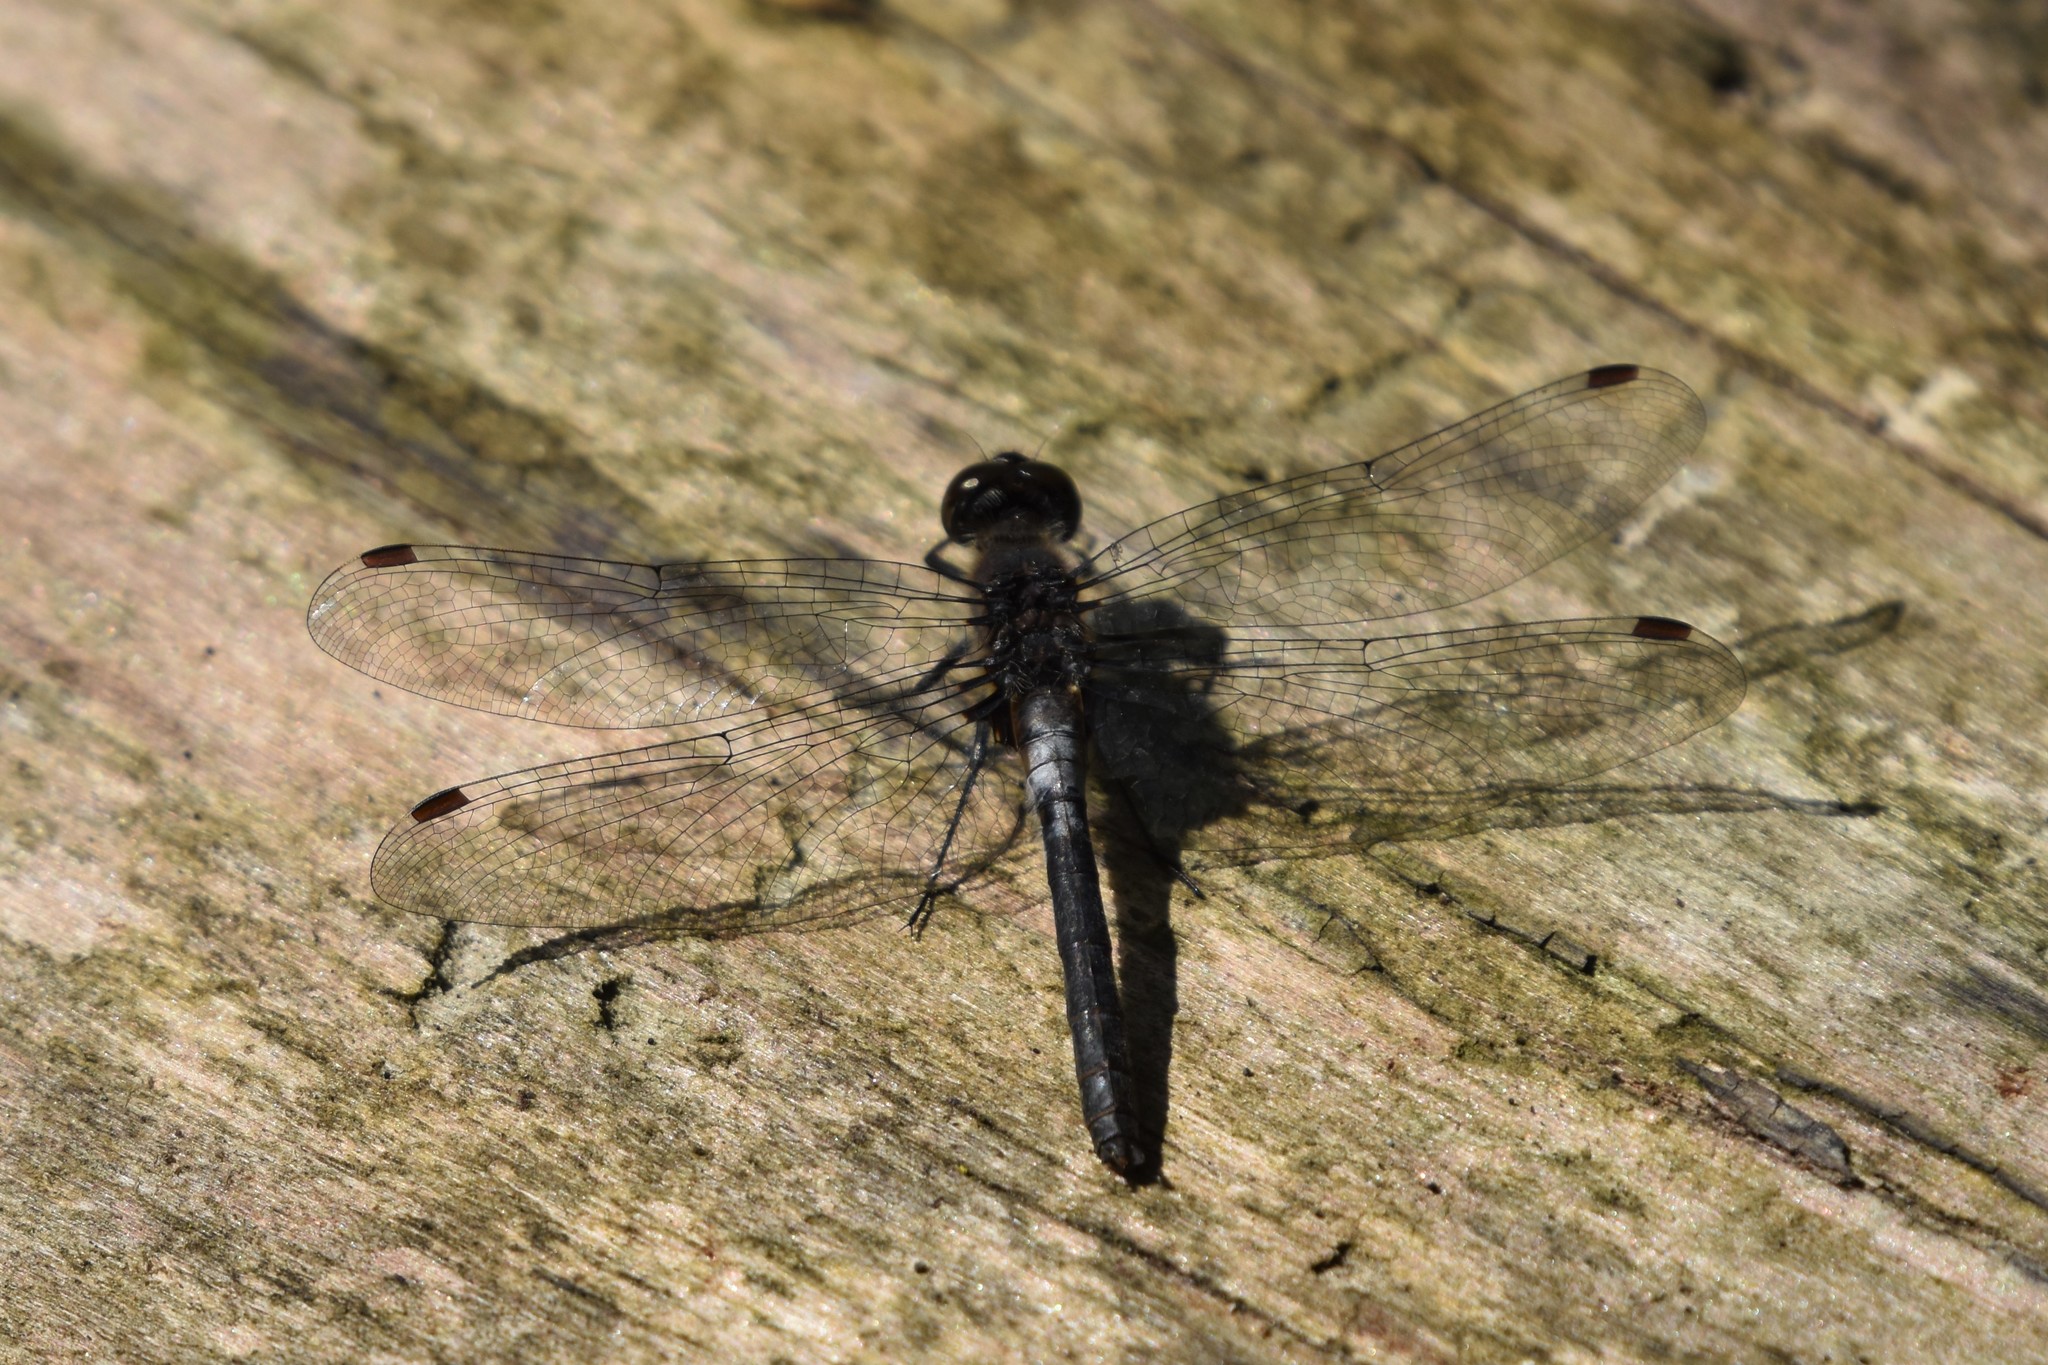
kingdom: Animalia
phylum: Arthropoda
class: Insecta
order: Odonata
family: Libellulidae
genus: Leucorrhinia
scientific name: Leucorrhinia frigida
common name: Frosted whiteface
